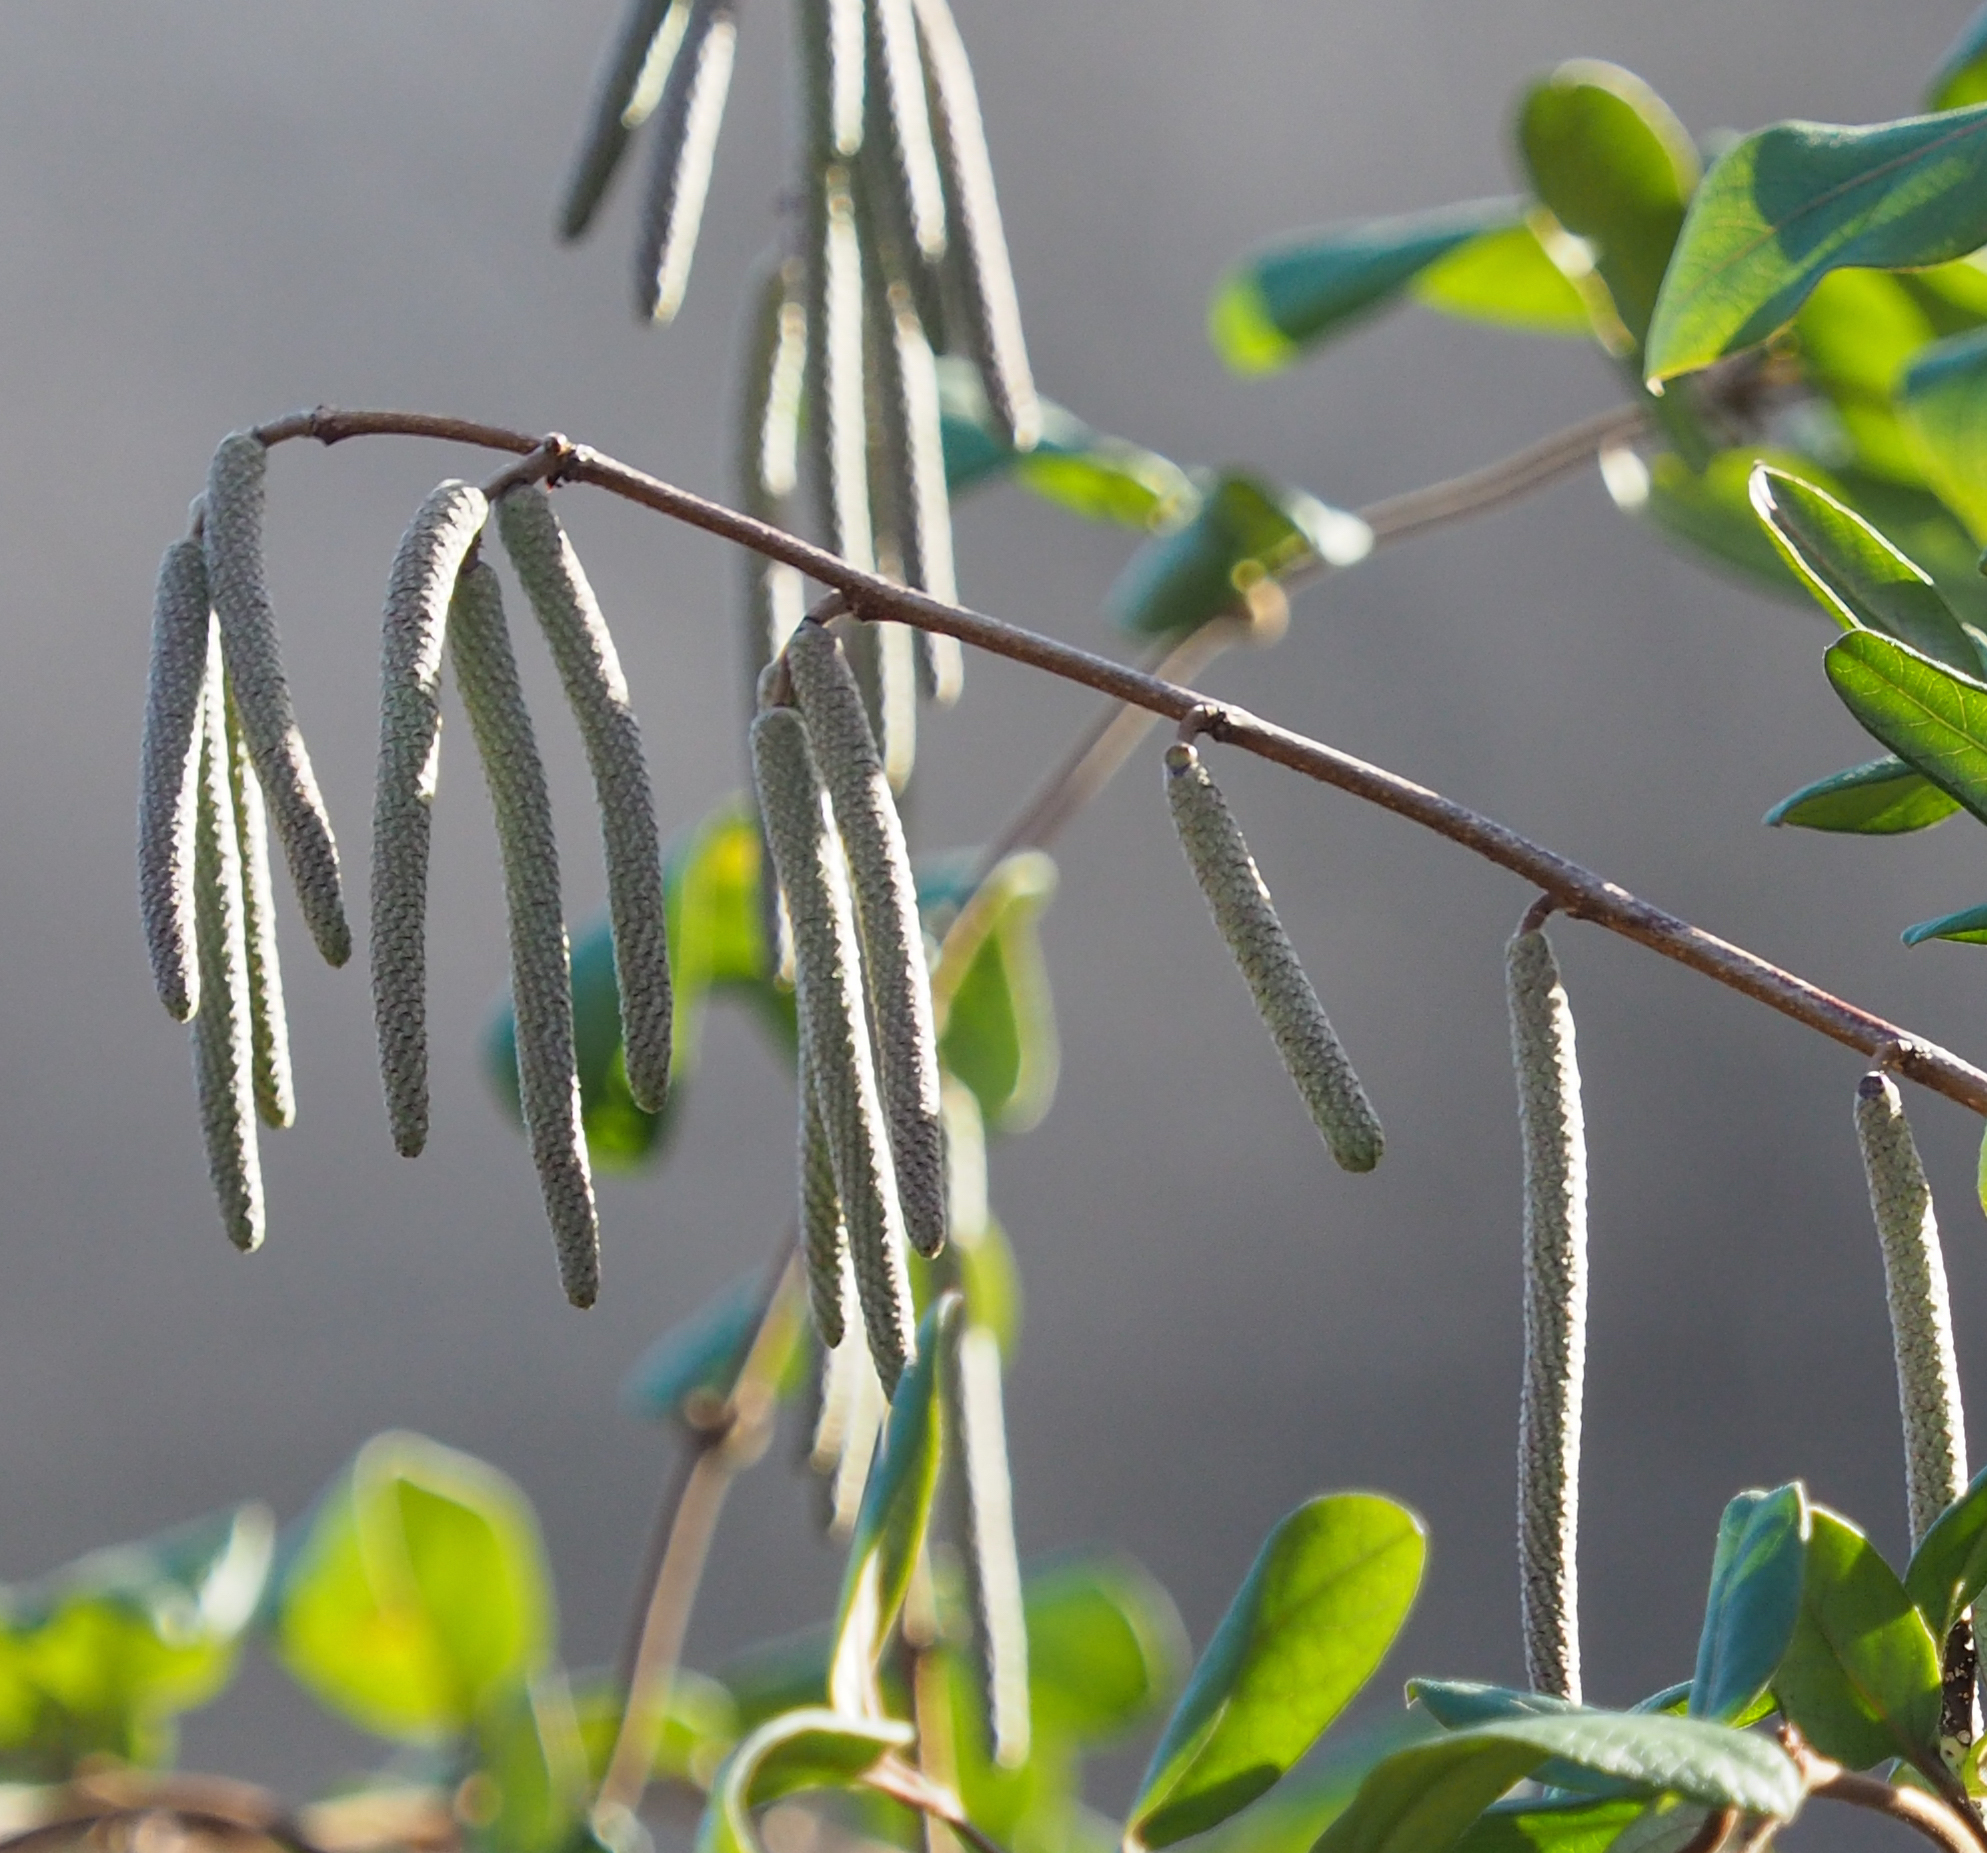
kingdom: Plantae
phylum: Tracheophyta
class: Magnoliopsida
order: Fagales
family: Betulaceae
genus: Corylus
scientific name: Corylus americana
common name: American hazel
